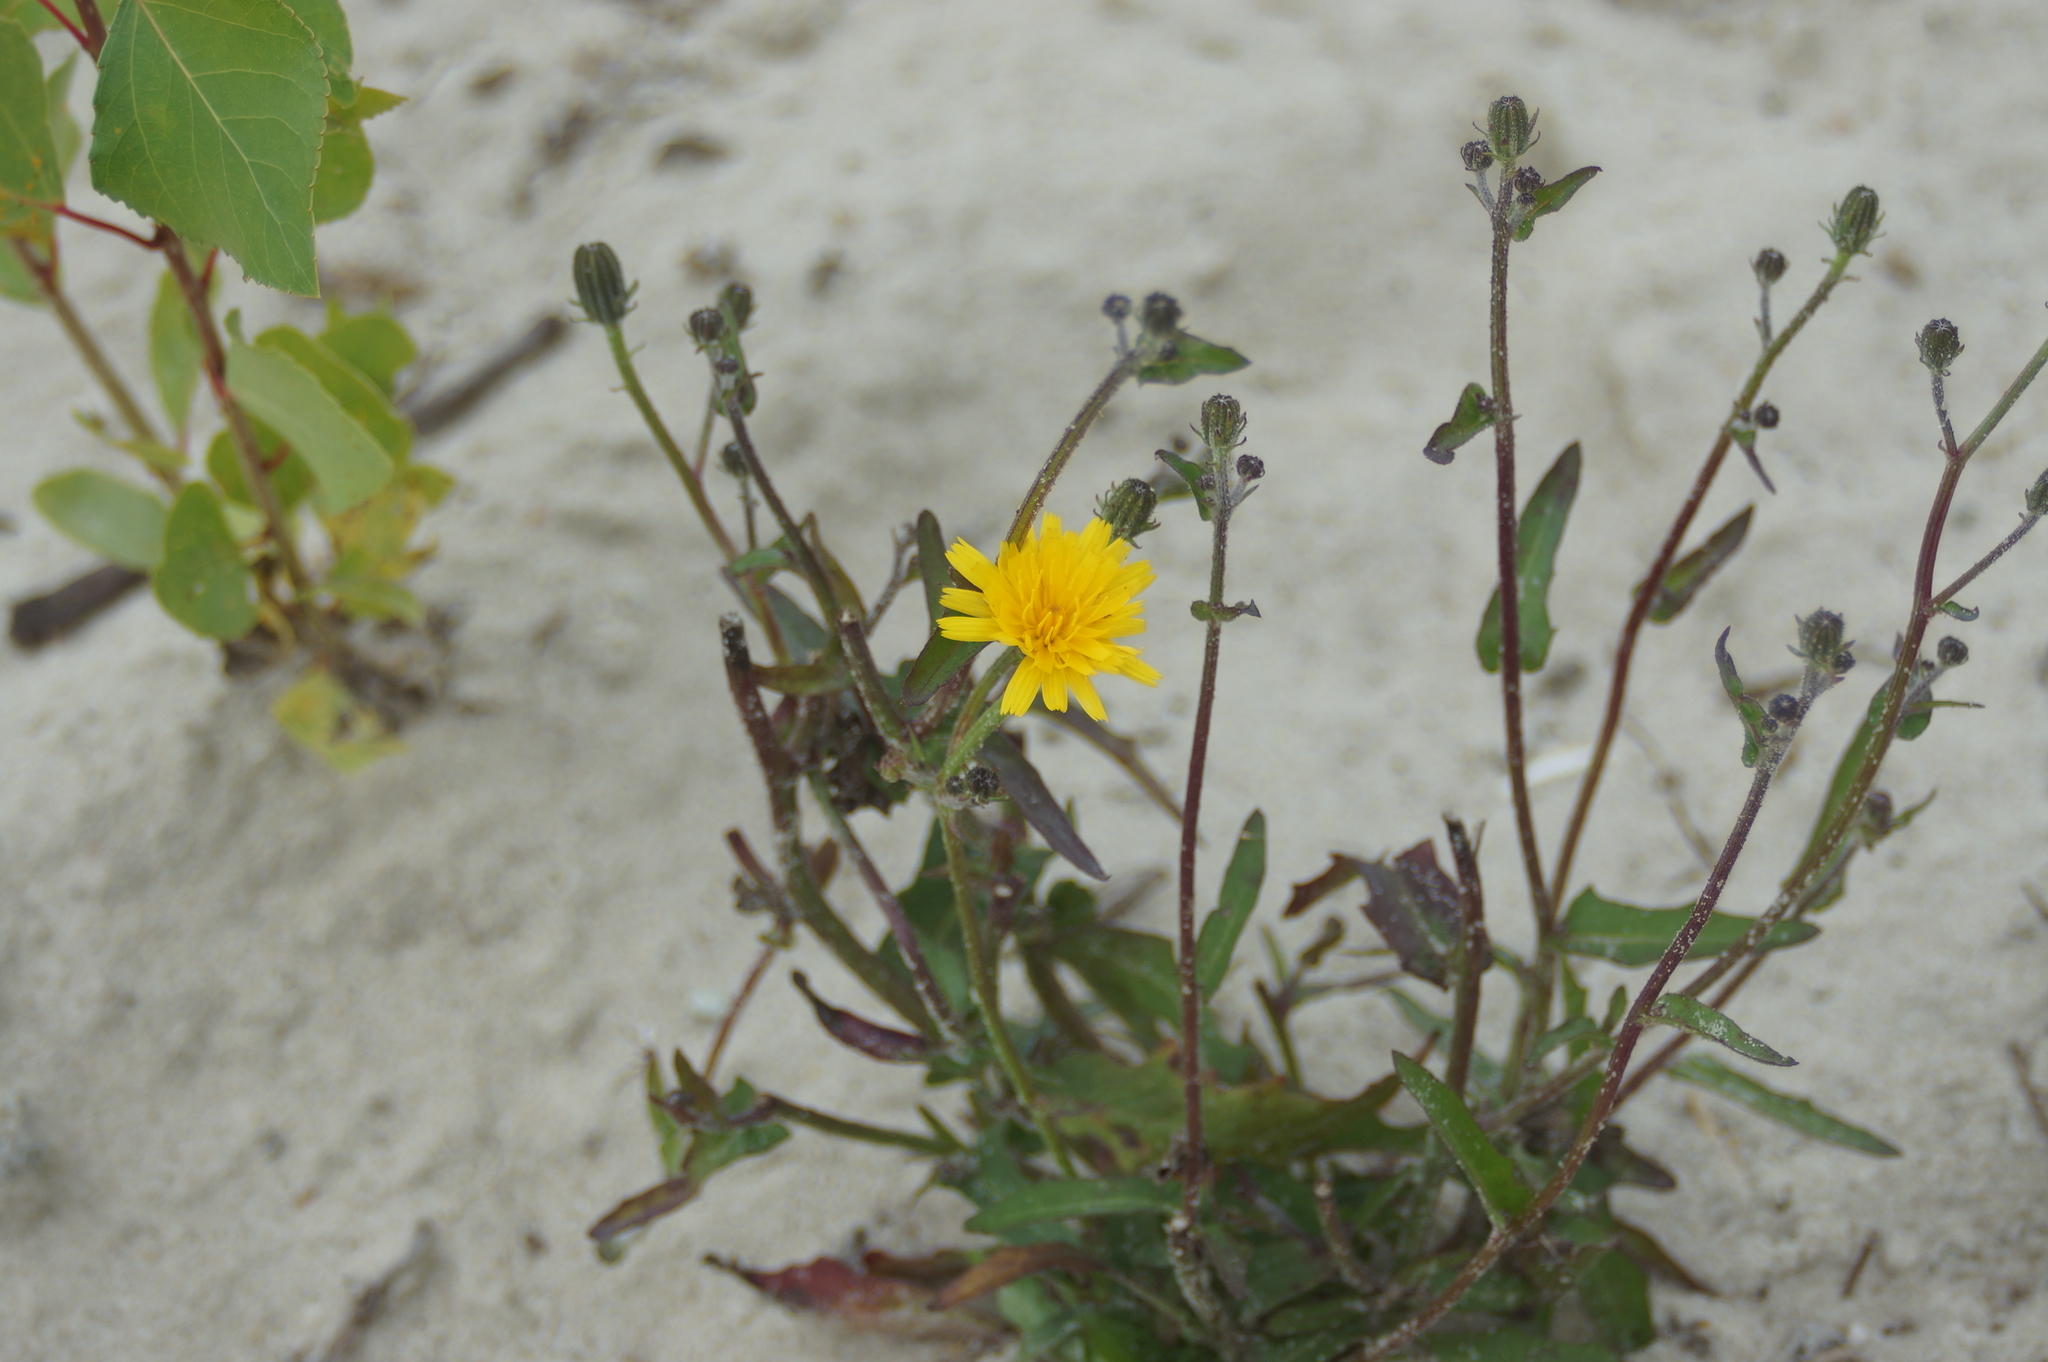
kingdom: Plantae
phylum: Tracheophyta
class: Magnoliopsida
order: Asterales
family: Asteraceae
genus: Picris
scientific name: Picris hieracioides
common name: Hawkweed oxtongue
